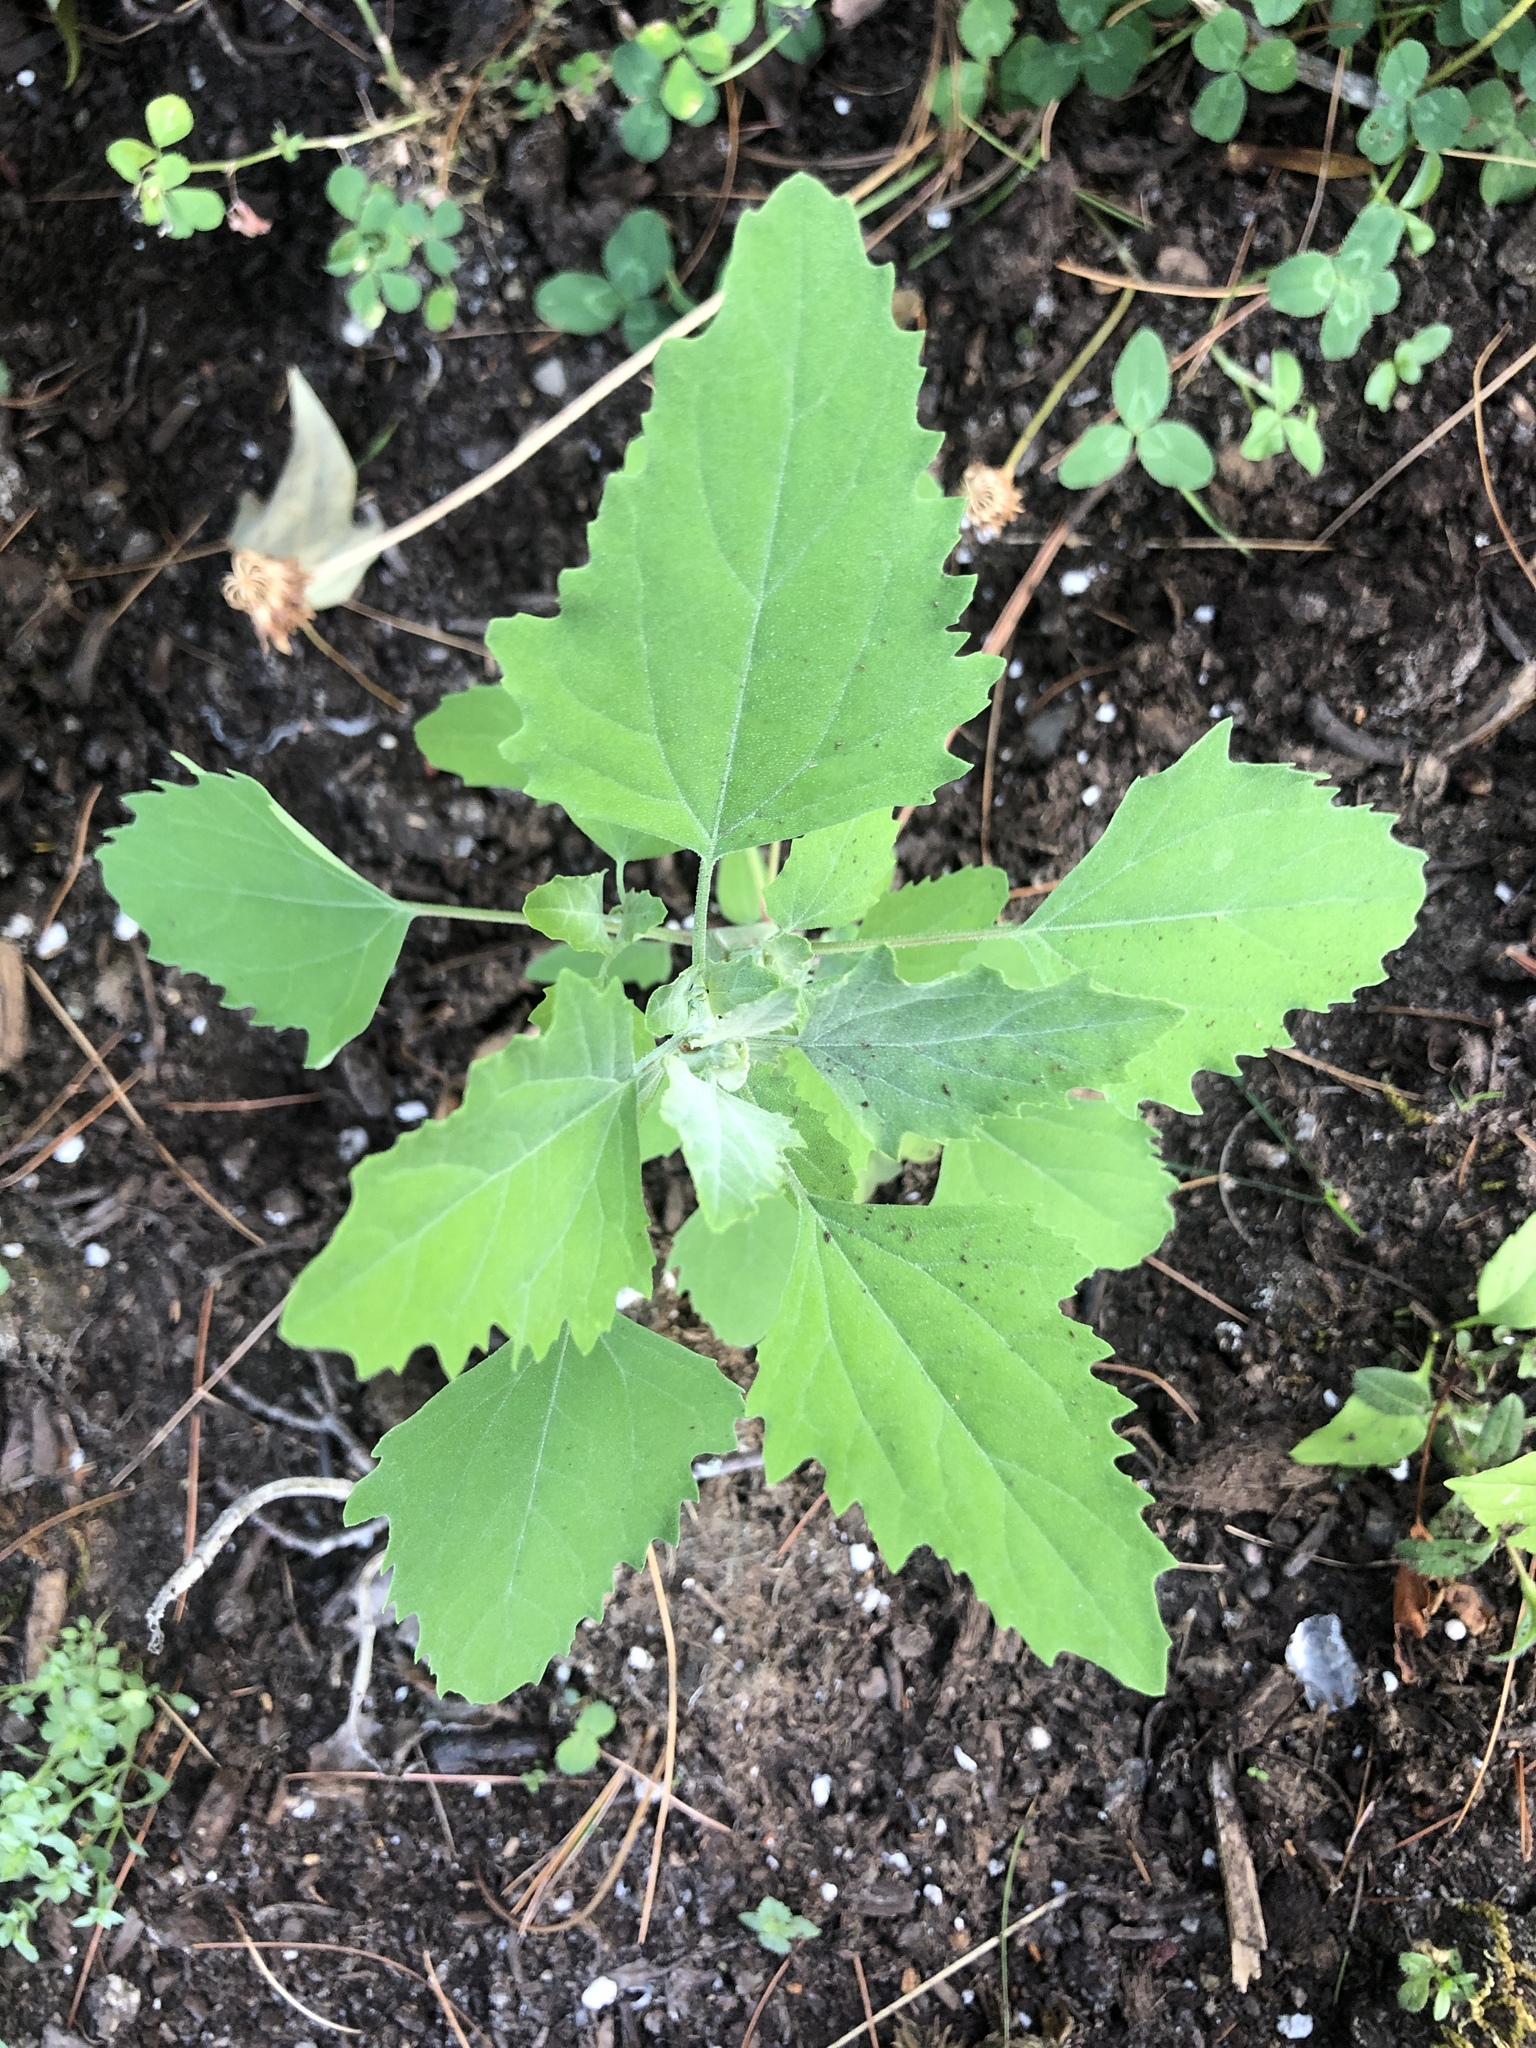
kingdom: Plantae
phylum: Tracheophyta
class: Magnoliopsida
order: Caryophyllales
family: Amaranthaceae
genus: Chenopodium
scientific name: Chenopodium album
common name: Fat-hen
